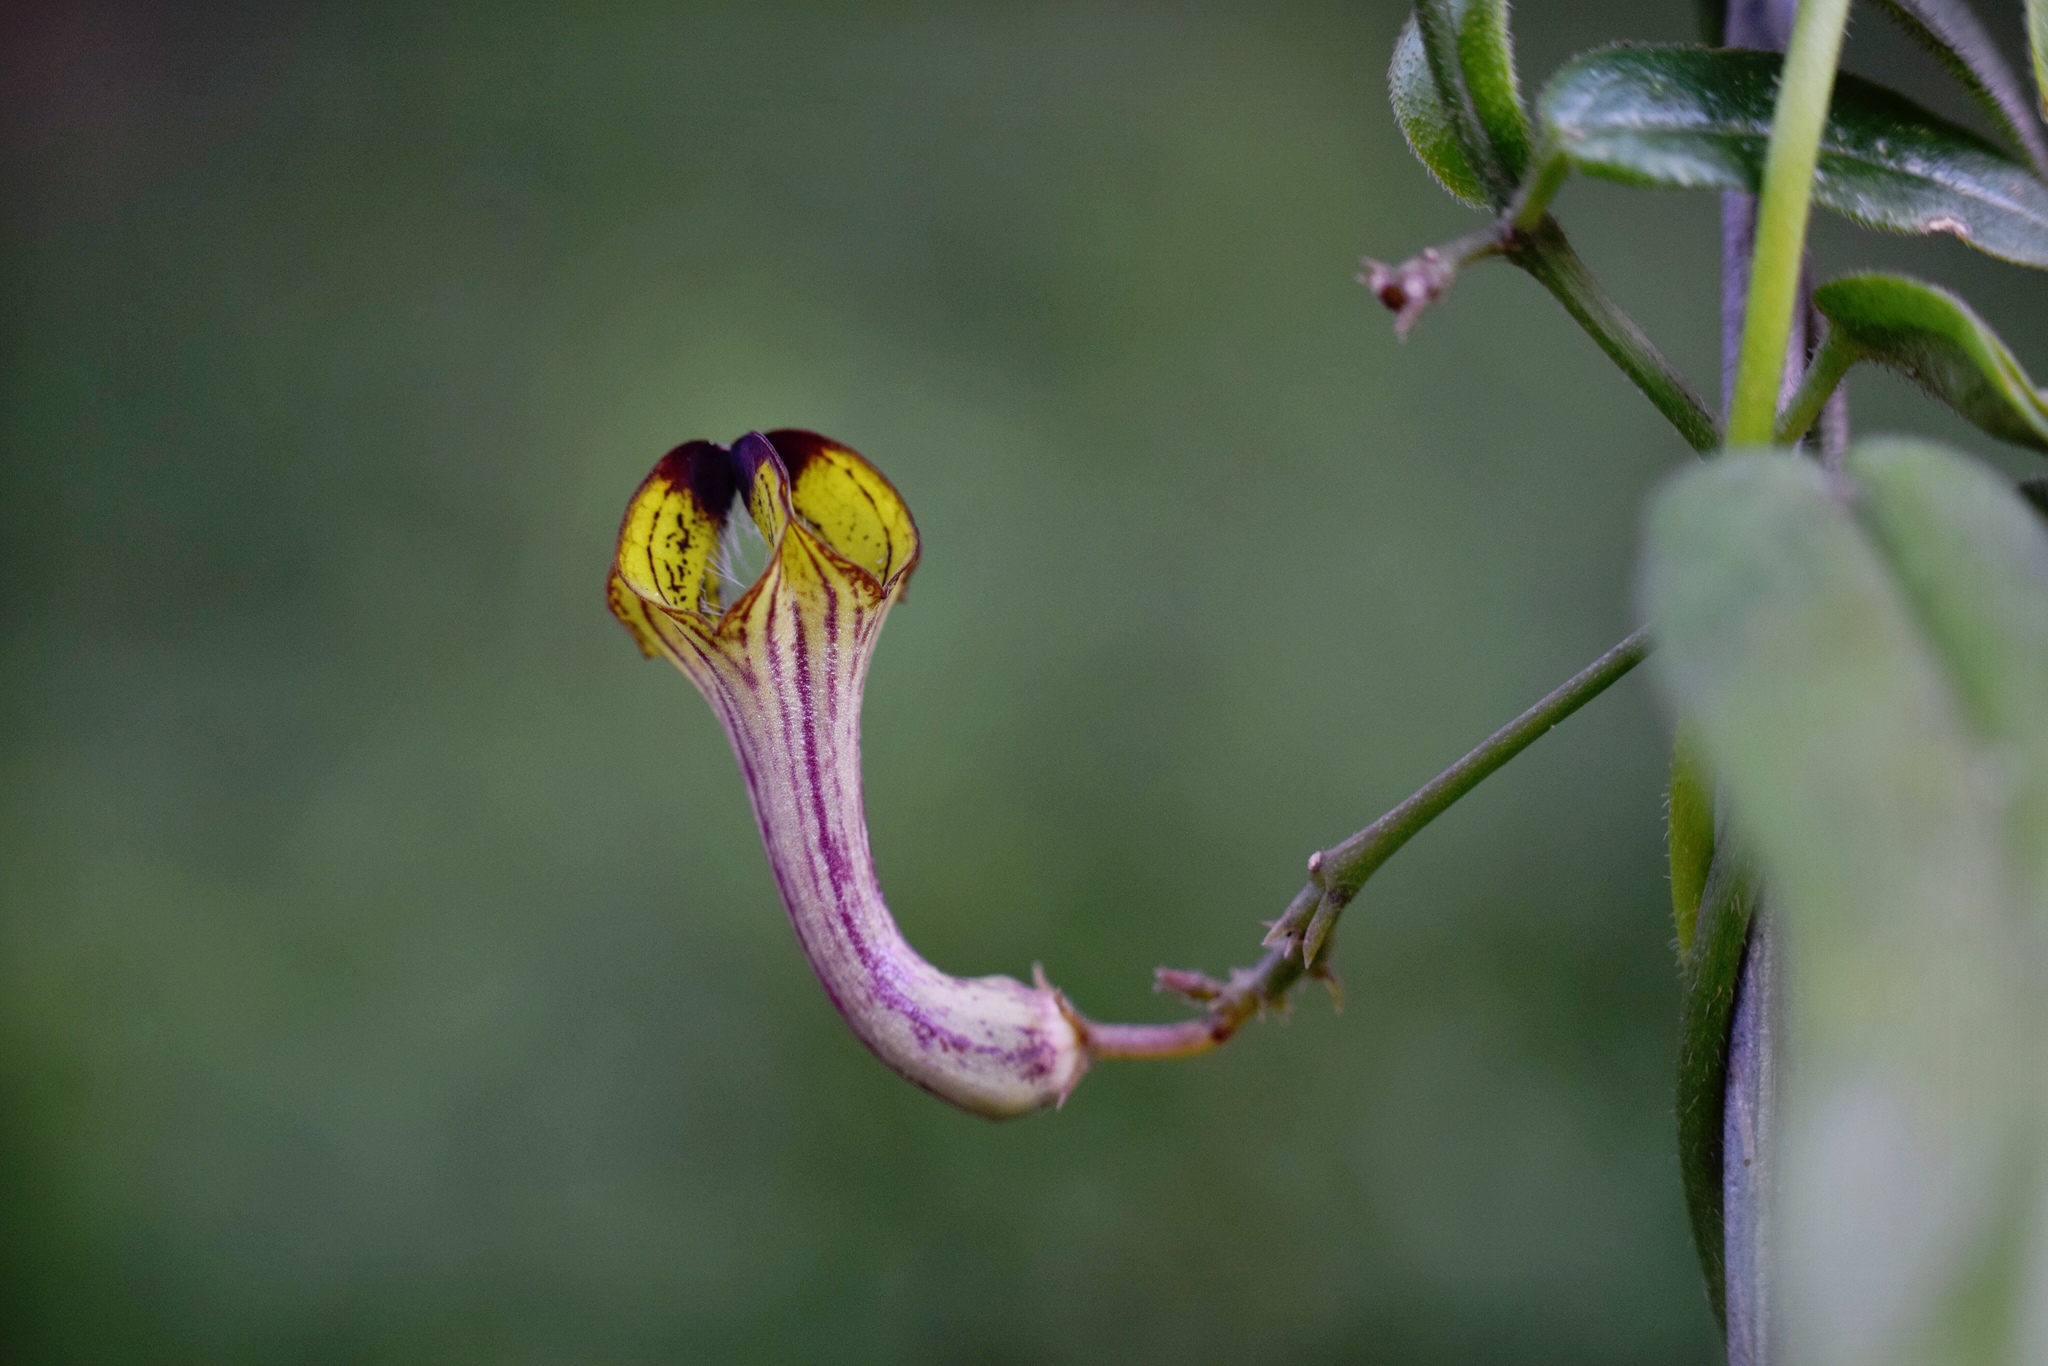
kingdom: Plantae
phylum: Tracheophyta
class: Magnoliopsida
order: Gentianales
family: Apocynaceae
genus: Ceropegia
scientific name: Ceropegia racemosa
